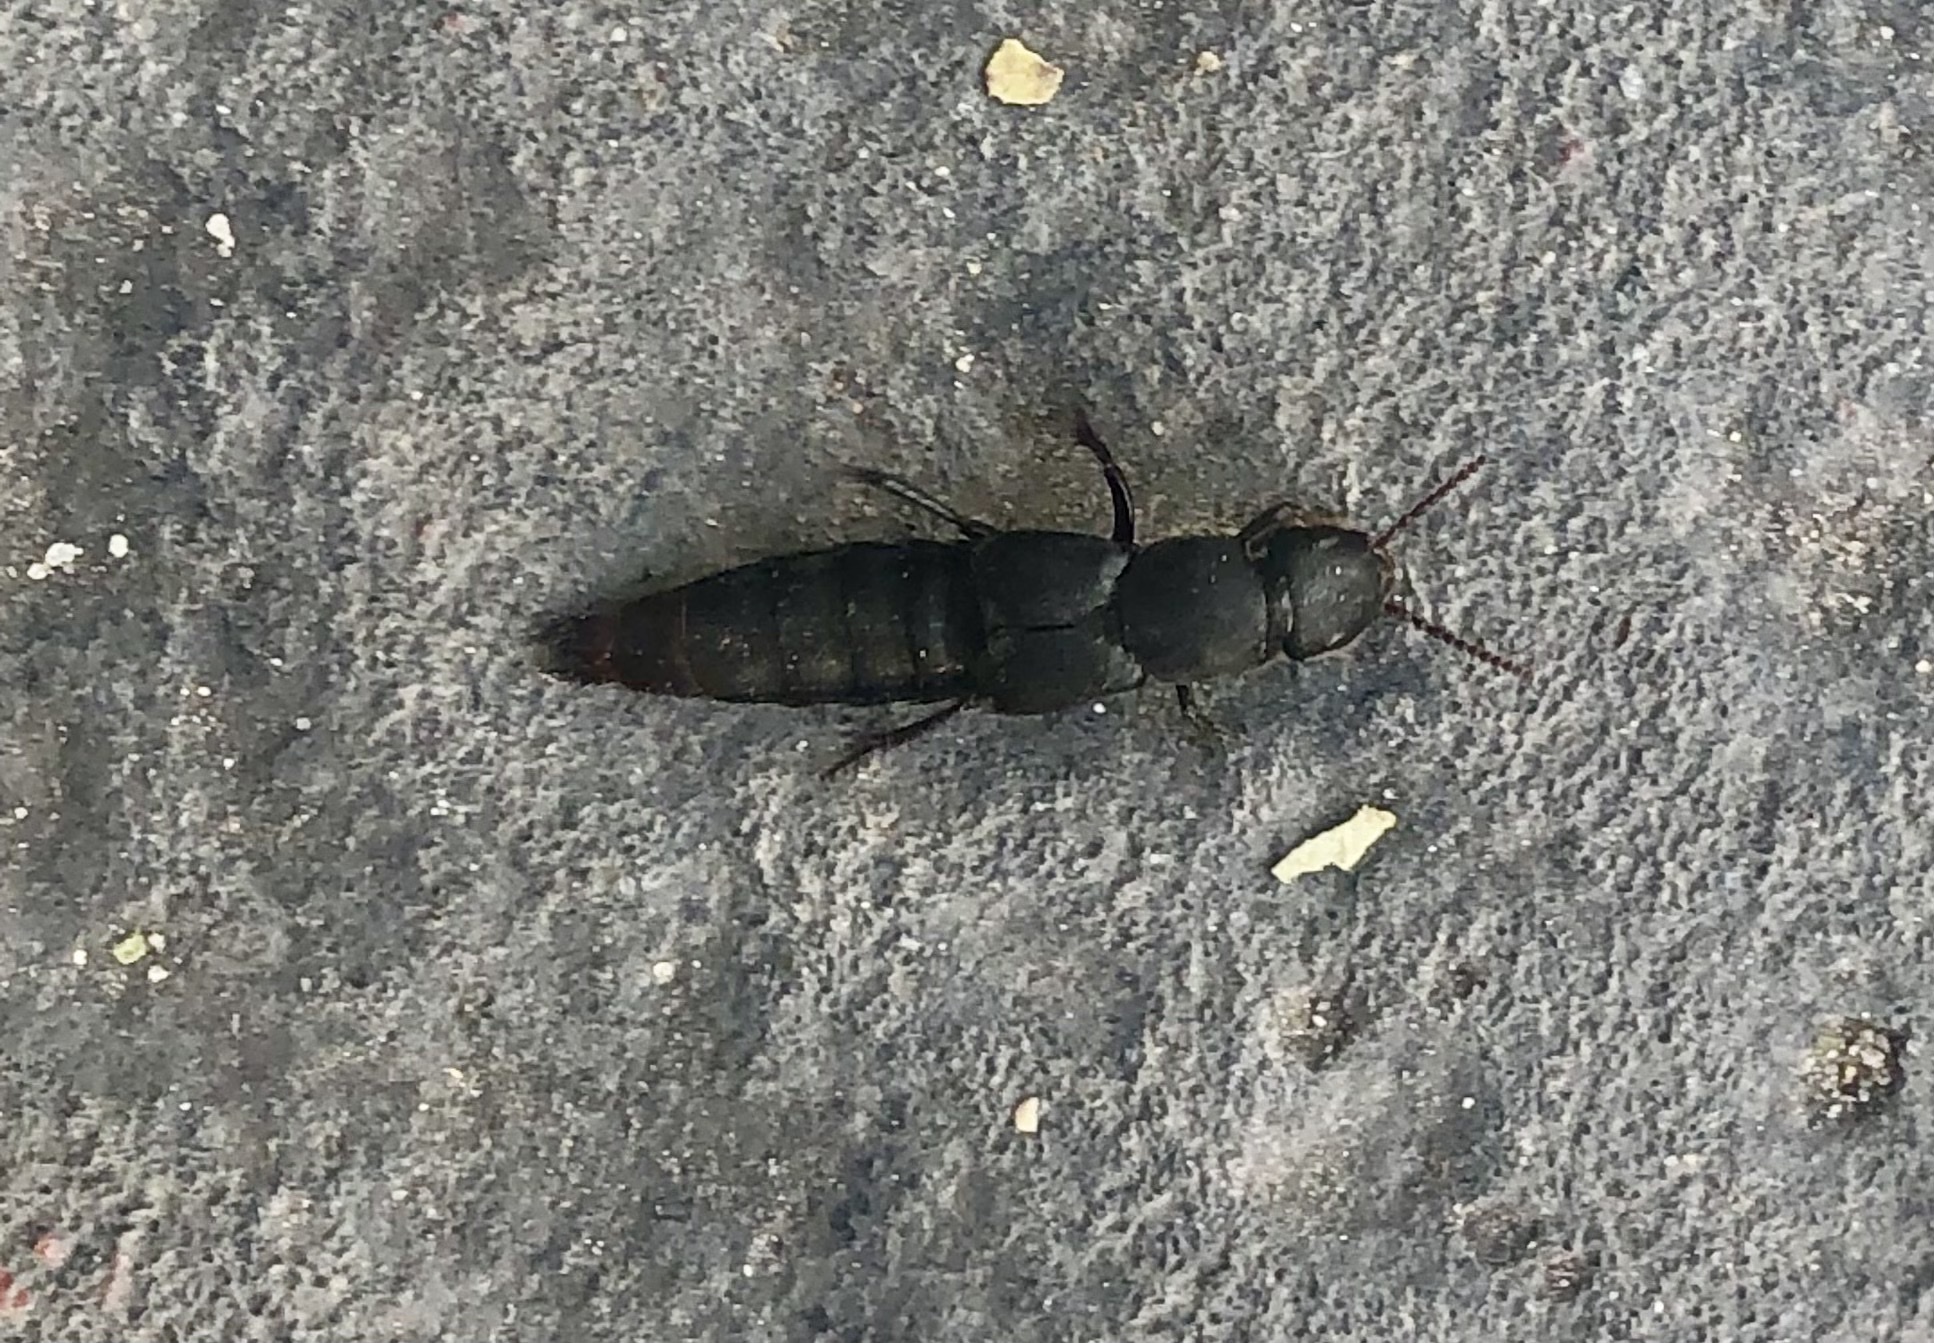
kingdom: Animalia
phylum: Arthropoda
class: Insecta
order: Coleoptera
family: Staphylinidae
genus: Platydracus
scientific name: Platydracus scabrosus
